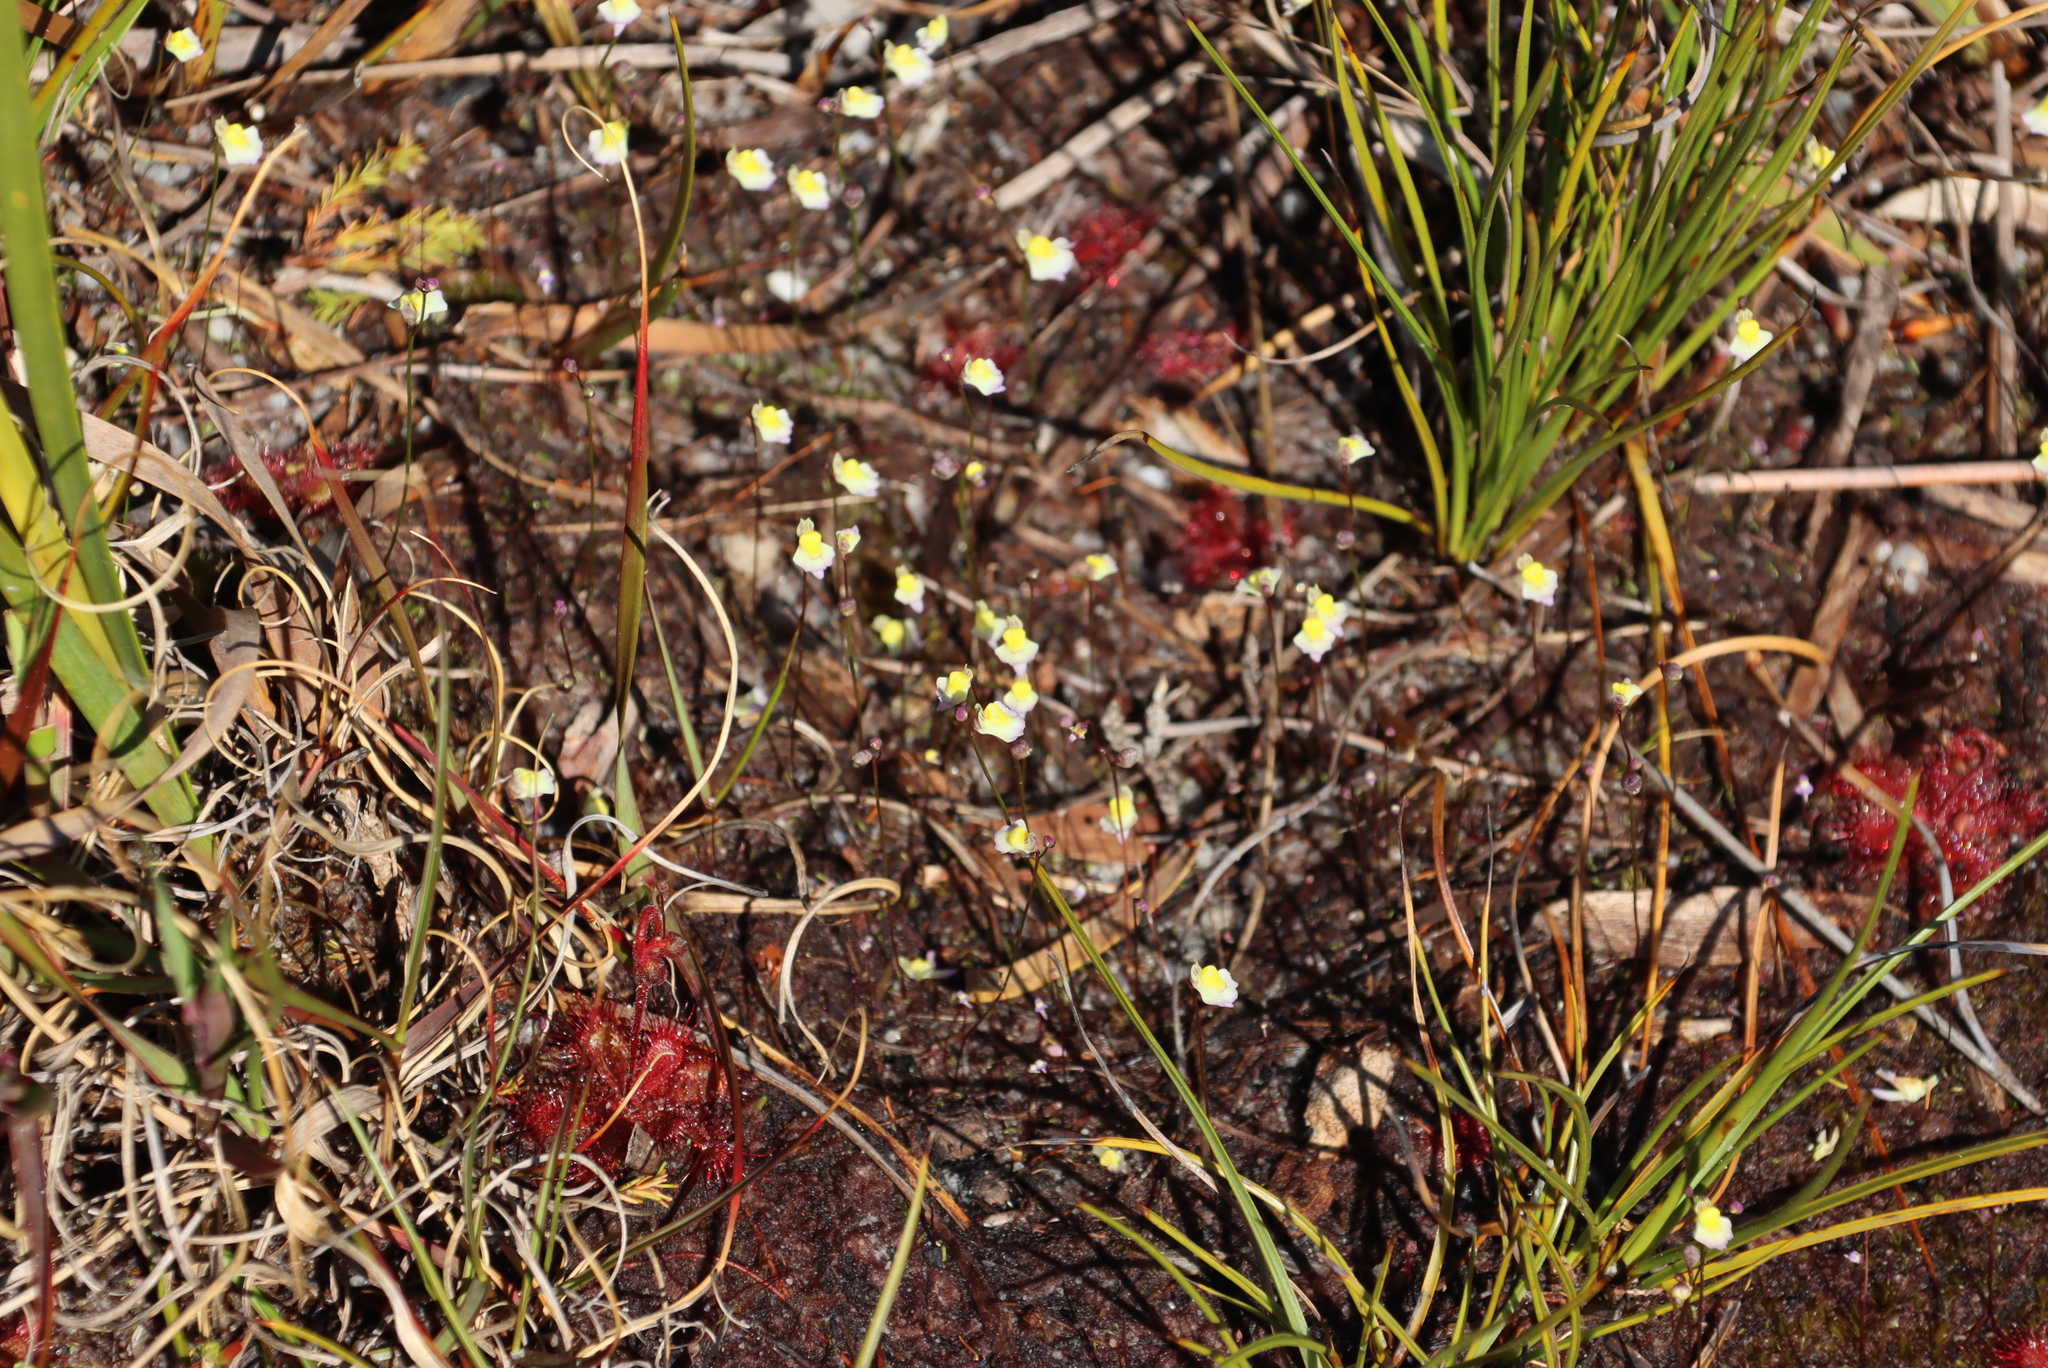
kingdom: Plantae
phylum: Tracheophyta
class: Magnoliopsida
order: Lamiales
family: Lentibulariaceae
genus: Utricularia
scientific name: Utricularia bisquamata
